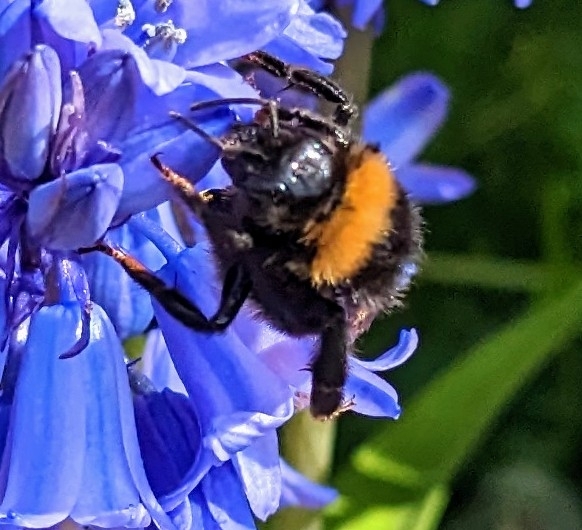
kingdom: Animalia
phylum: Arthropoda
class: Insecta
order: Hymenoptera
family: Apidae
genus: Bombus
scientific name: Bombus vestalis
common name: Vestal cuckoo bee
